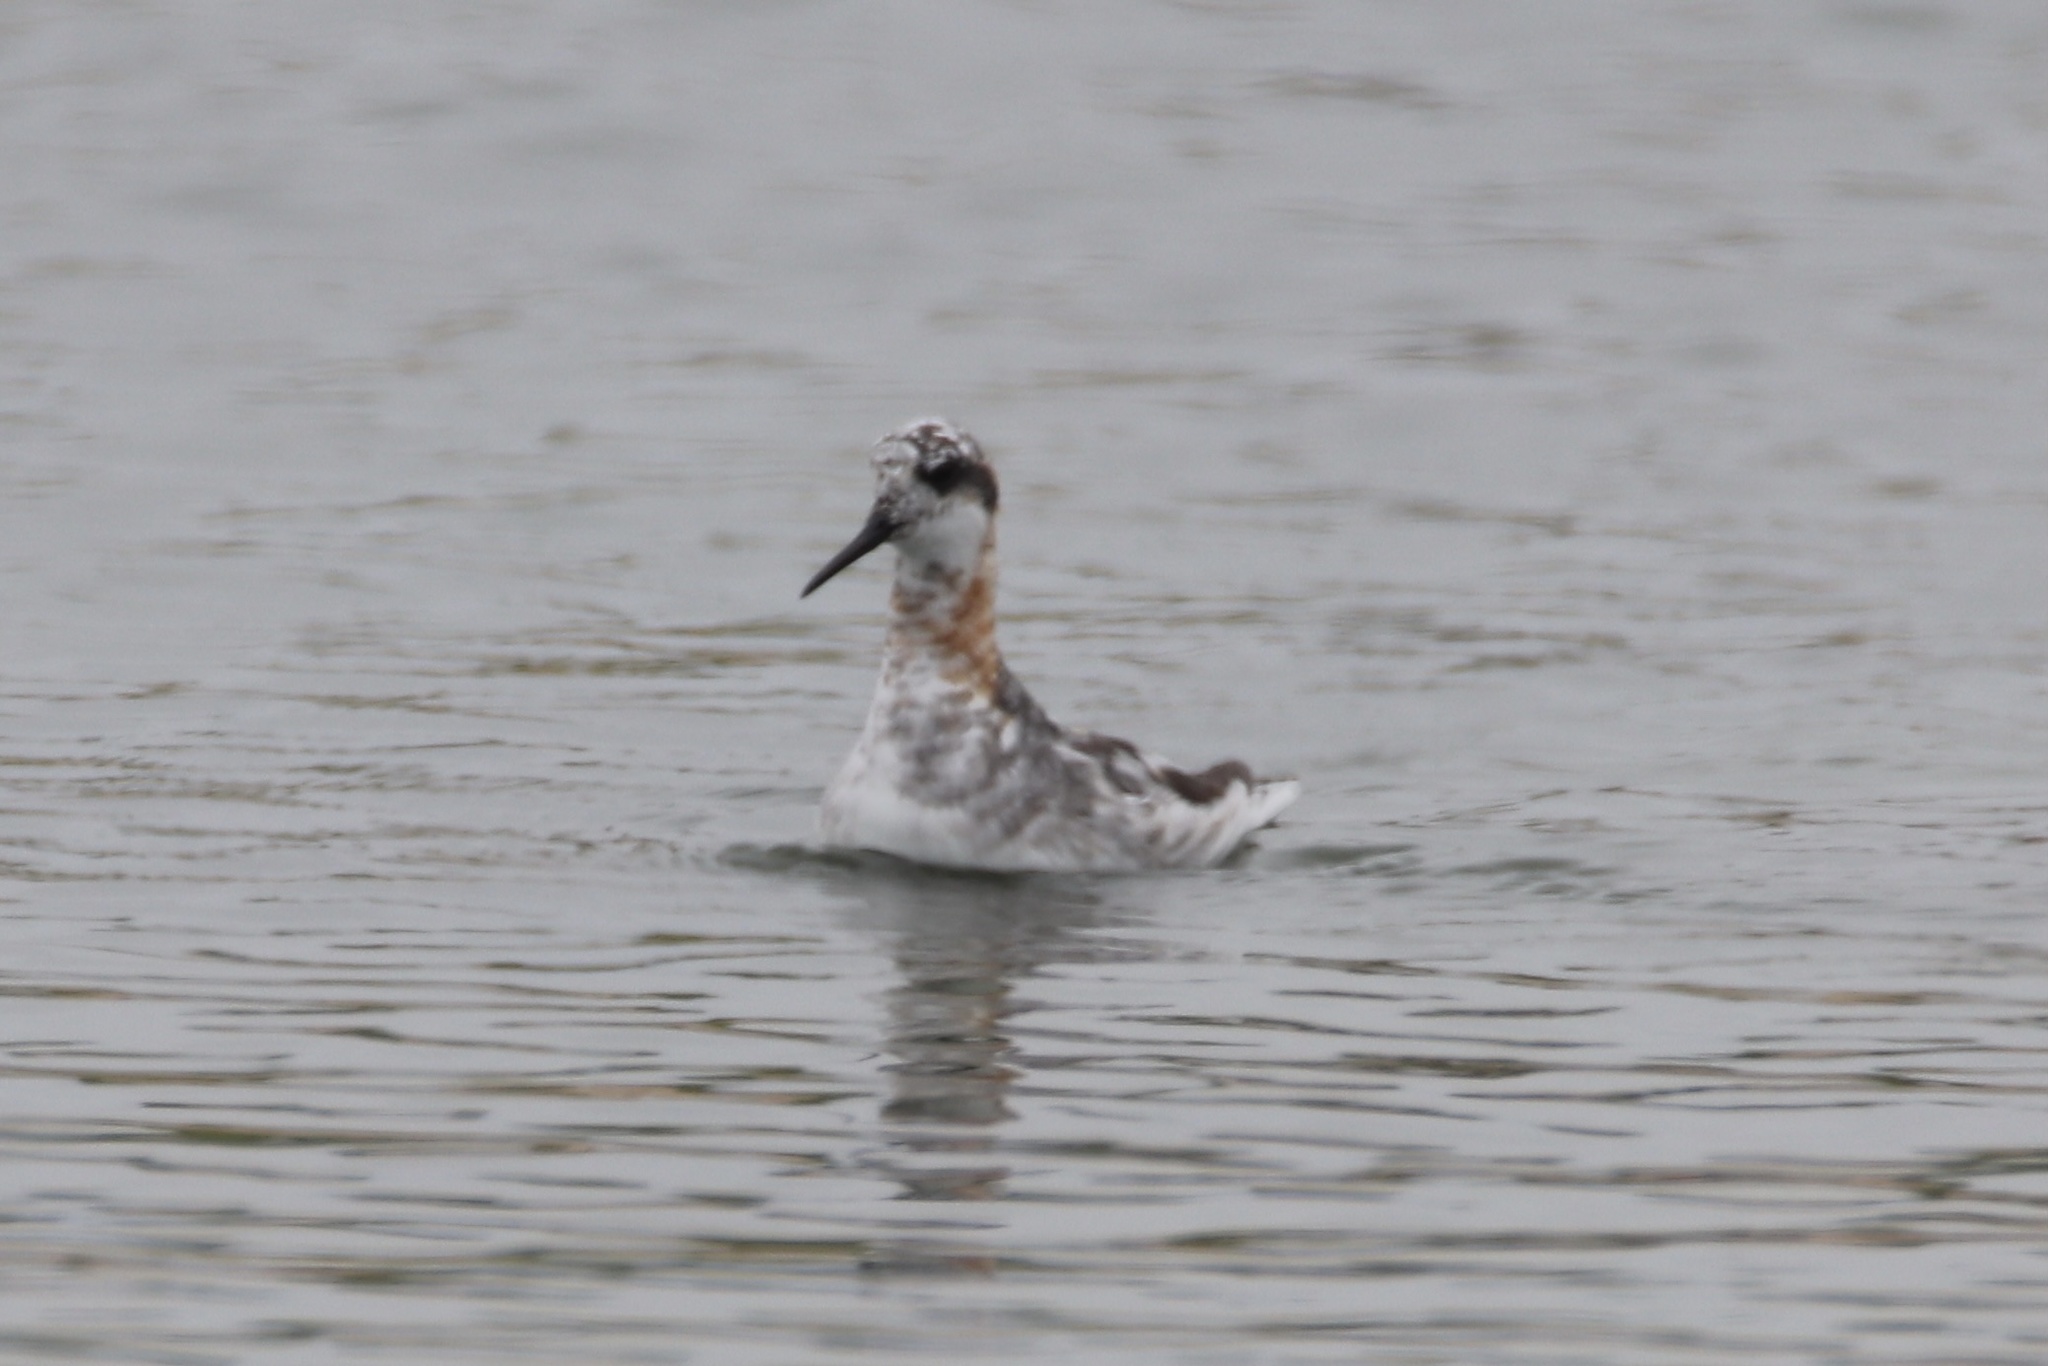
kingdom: Animalia
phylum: Chordata
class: Aves
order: Charadriiformes
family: Scolopacidae
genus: Phalaropus
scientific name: Phalaropus lobatus
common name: Red-necked phalarope
